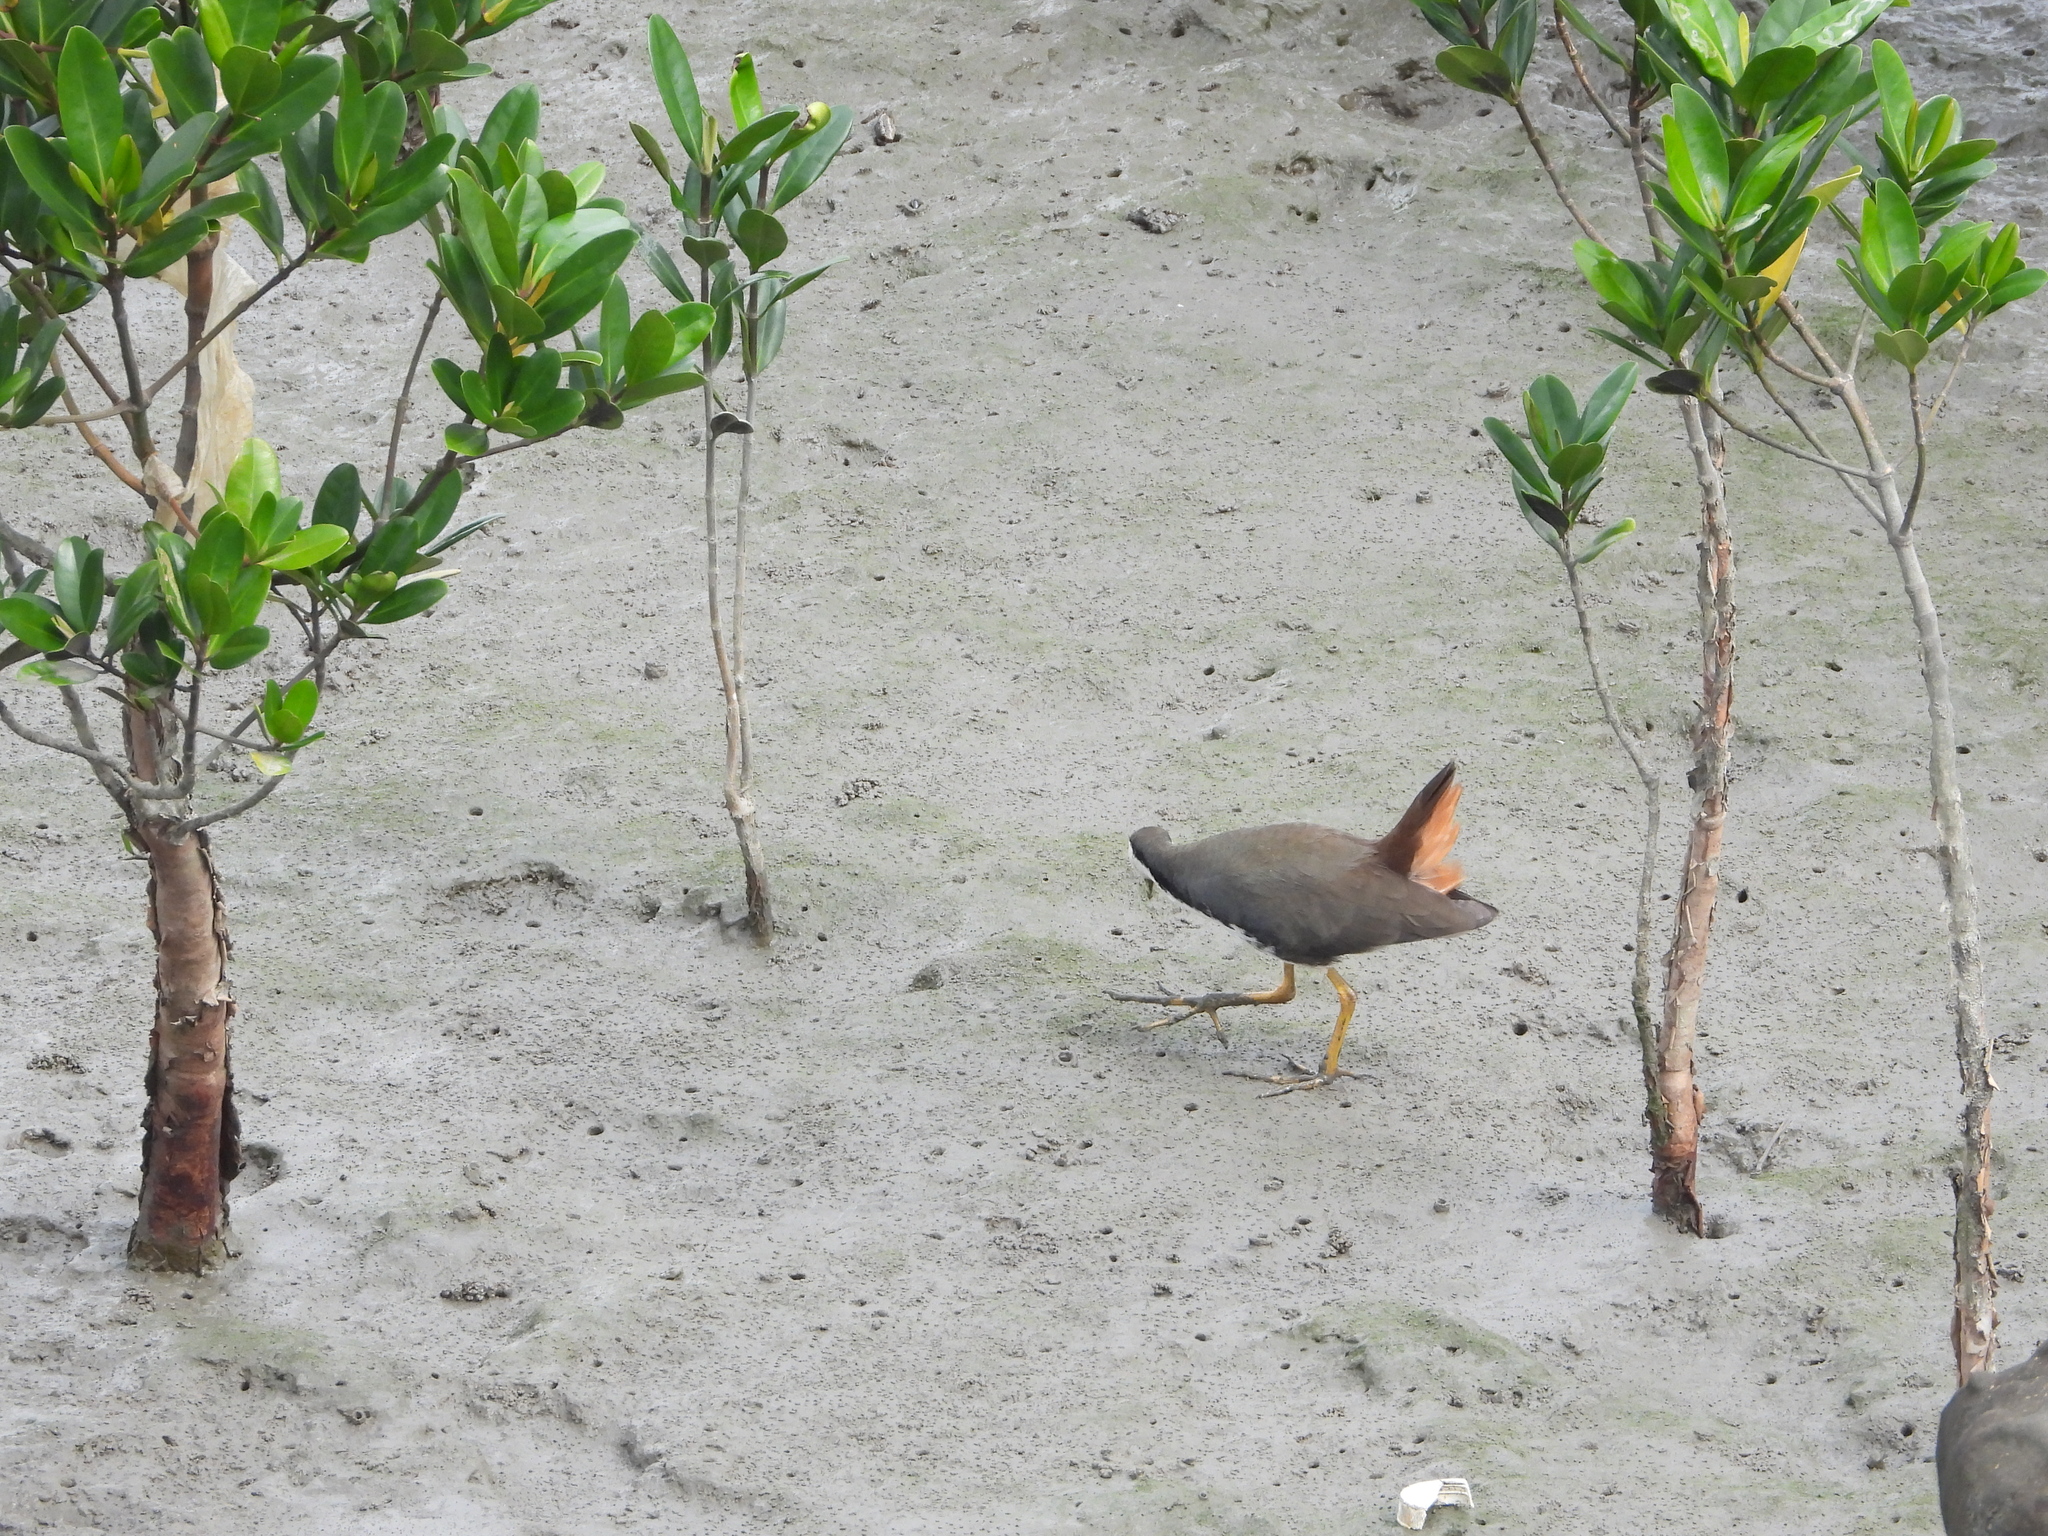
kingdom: Animalia
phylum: Chordata
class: Aves
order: Gruiformes
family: Rallidae
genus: Amaurornis
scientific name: Amaurornis phoenicurus
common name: White-breasted waterhen
